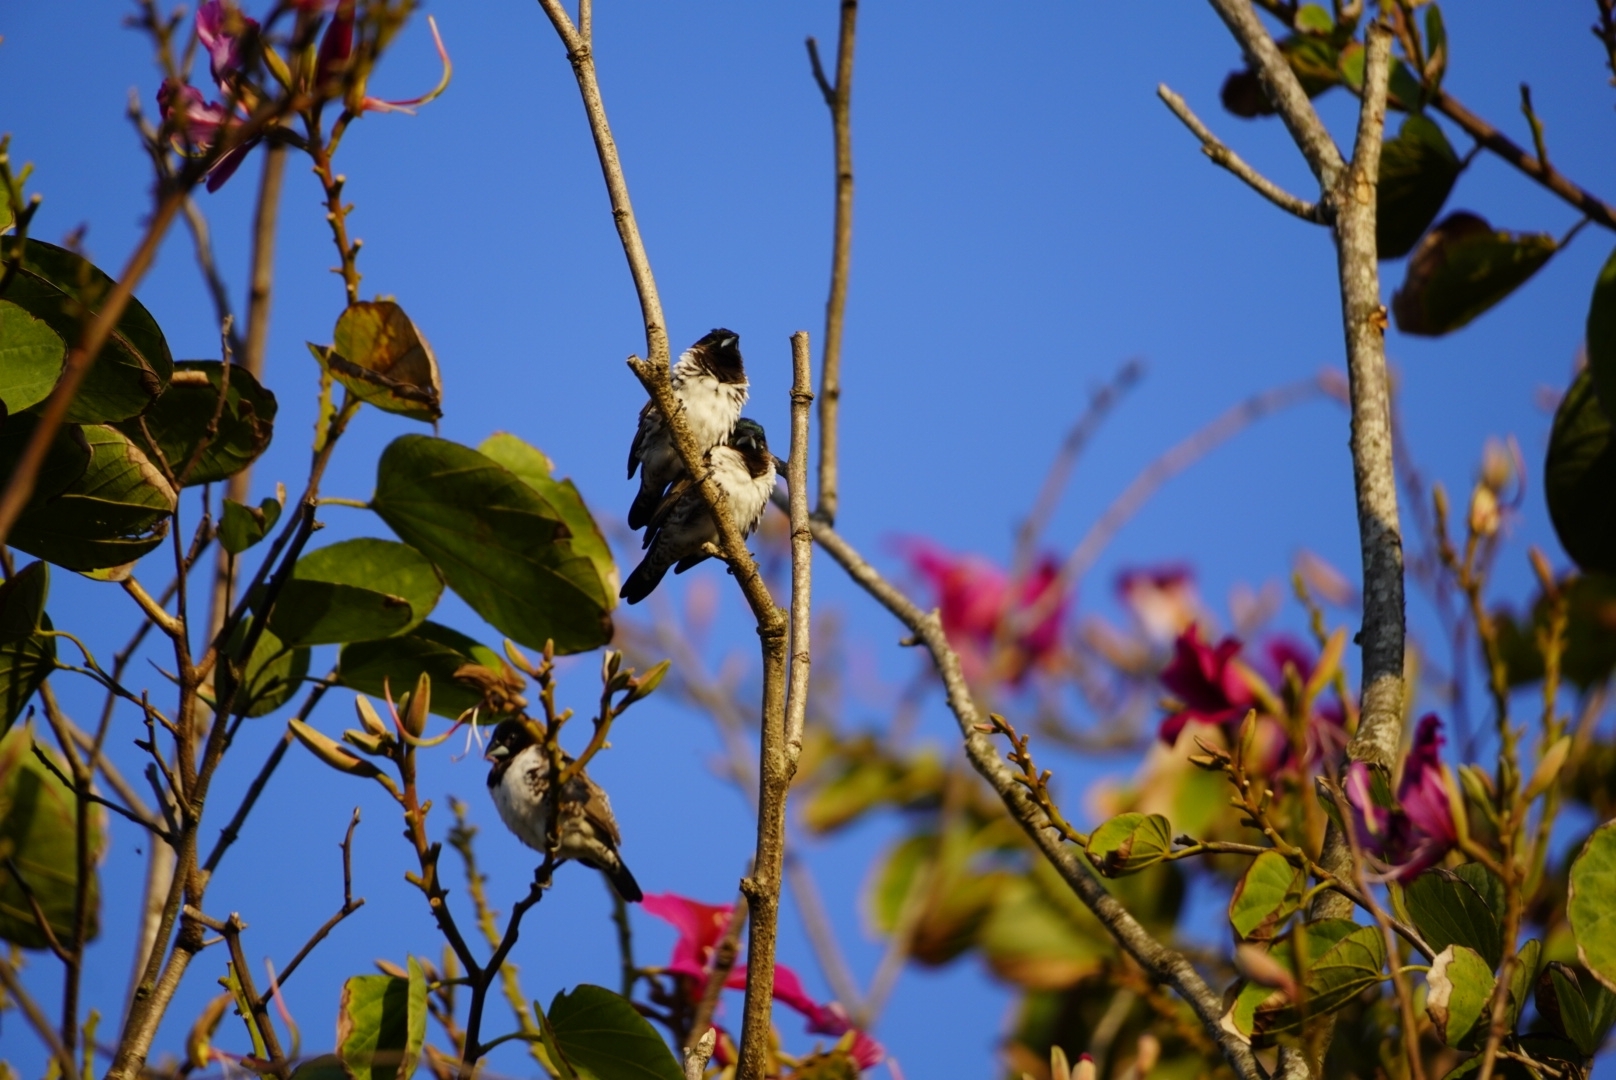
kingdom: Animalia
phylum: Chordata
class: Aves
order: Passeriformes
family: Estrildidae
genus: Lonchura
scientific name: Lonchura cucullata
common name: Bronze mannikin
